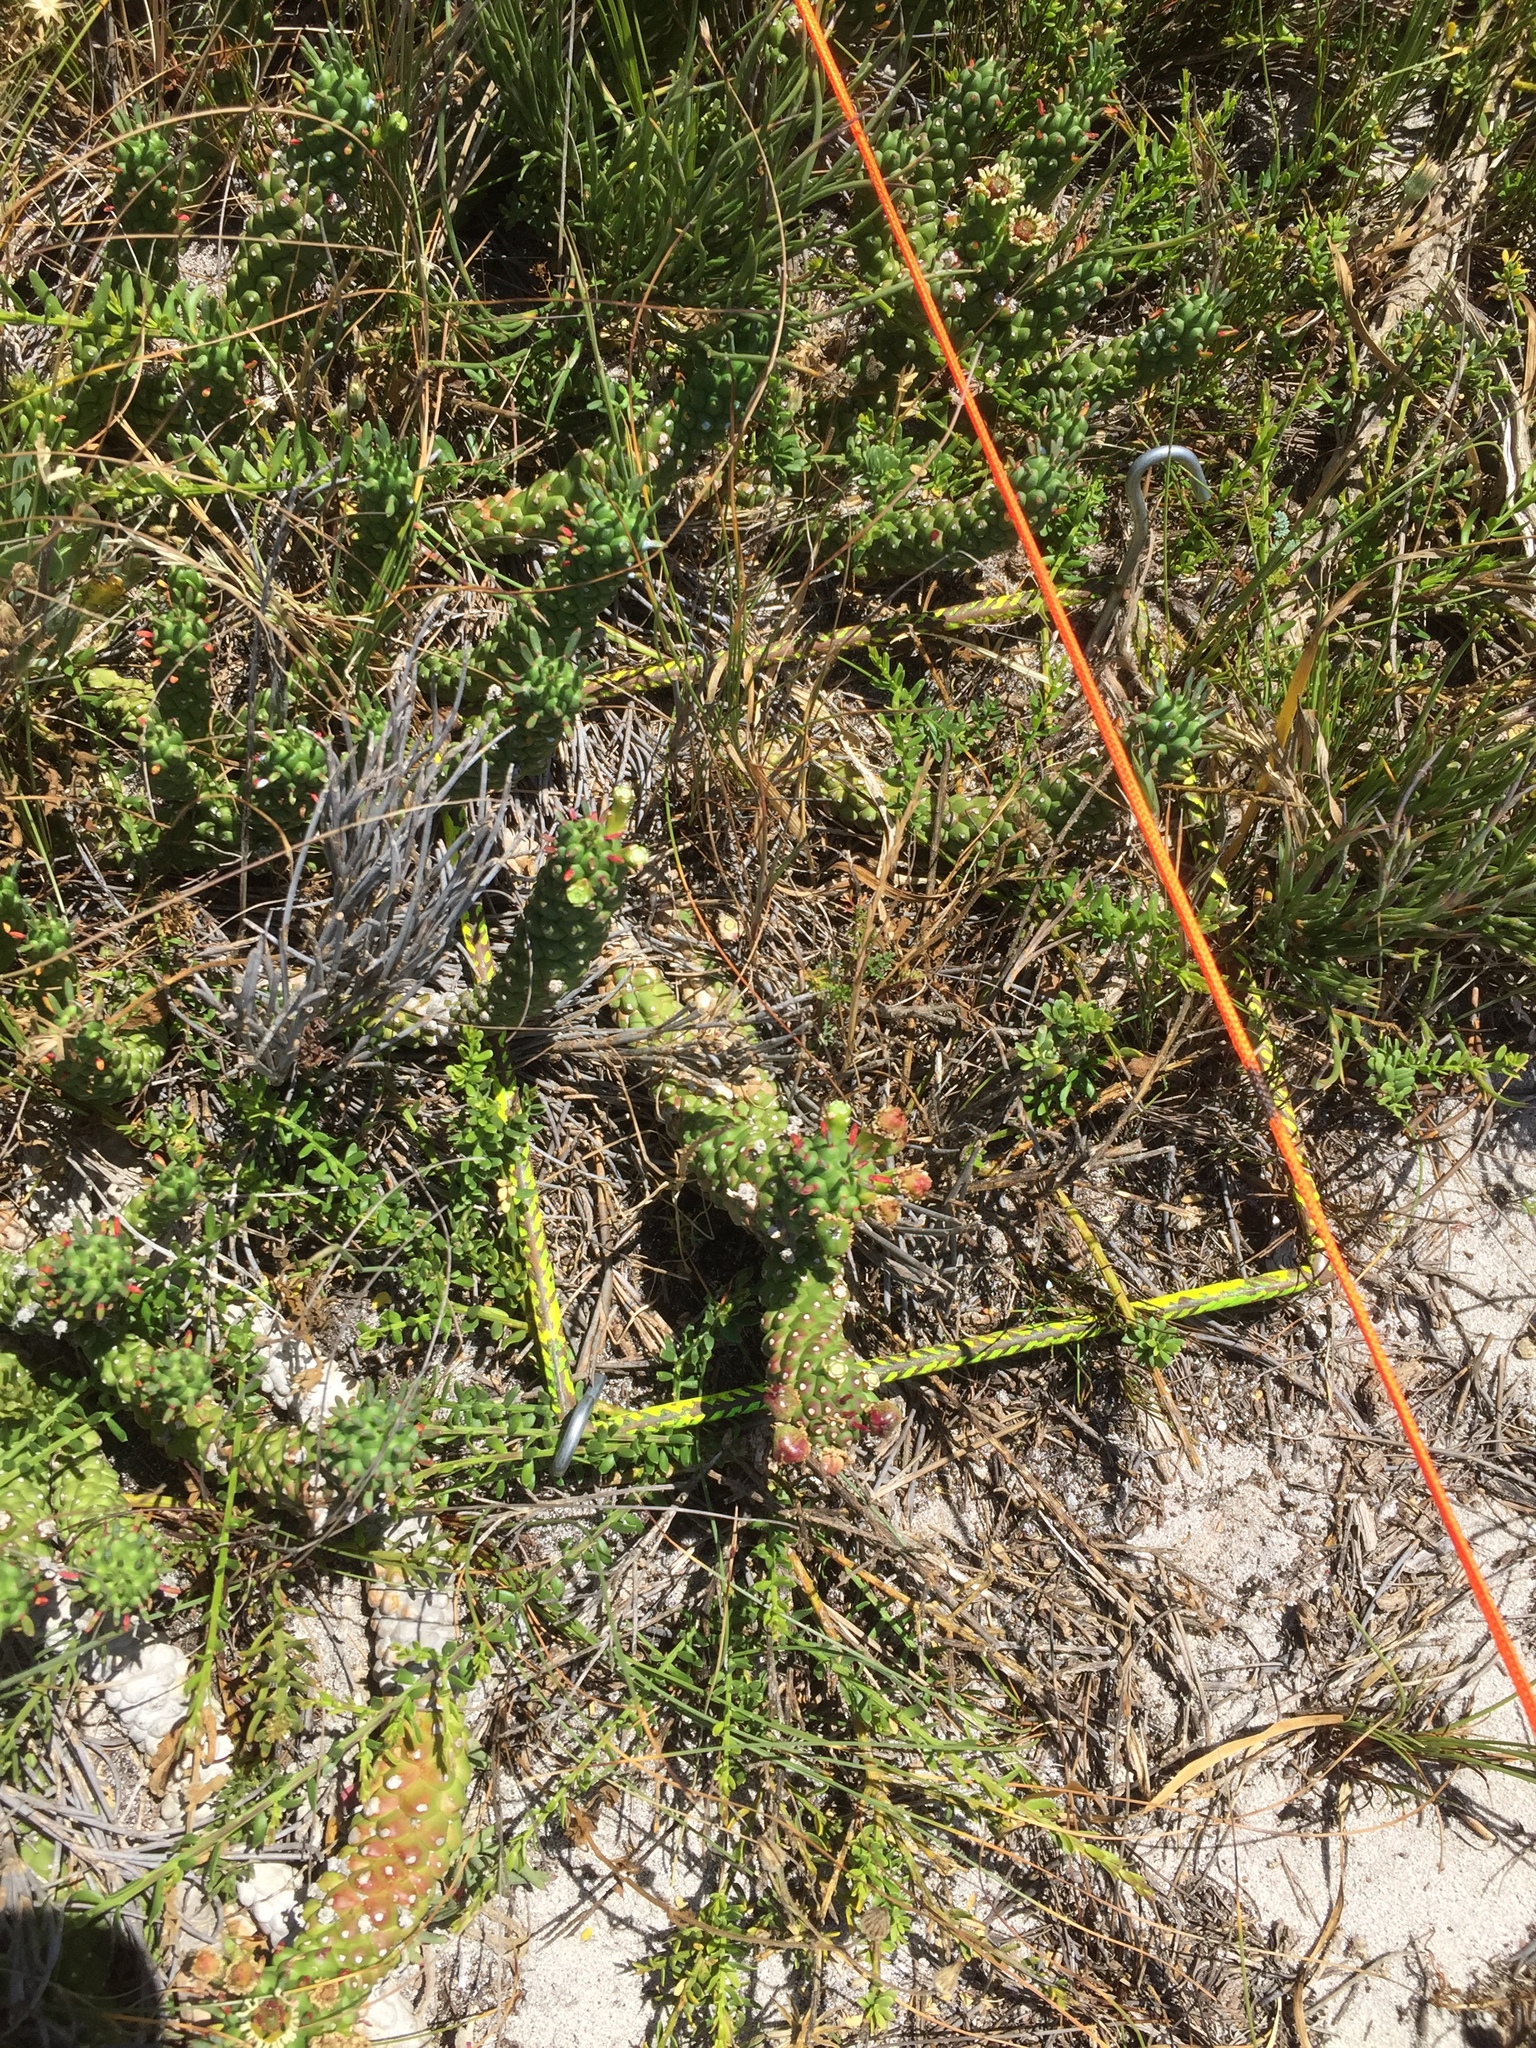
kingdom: Plantae
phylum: Tracheophyta
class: Magnoliopsida
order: Malpighiales
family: Euphorbiaceae
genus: Euphorbia
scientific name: Euphorbia caput-medusae
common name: Medusa's-head
